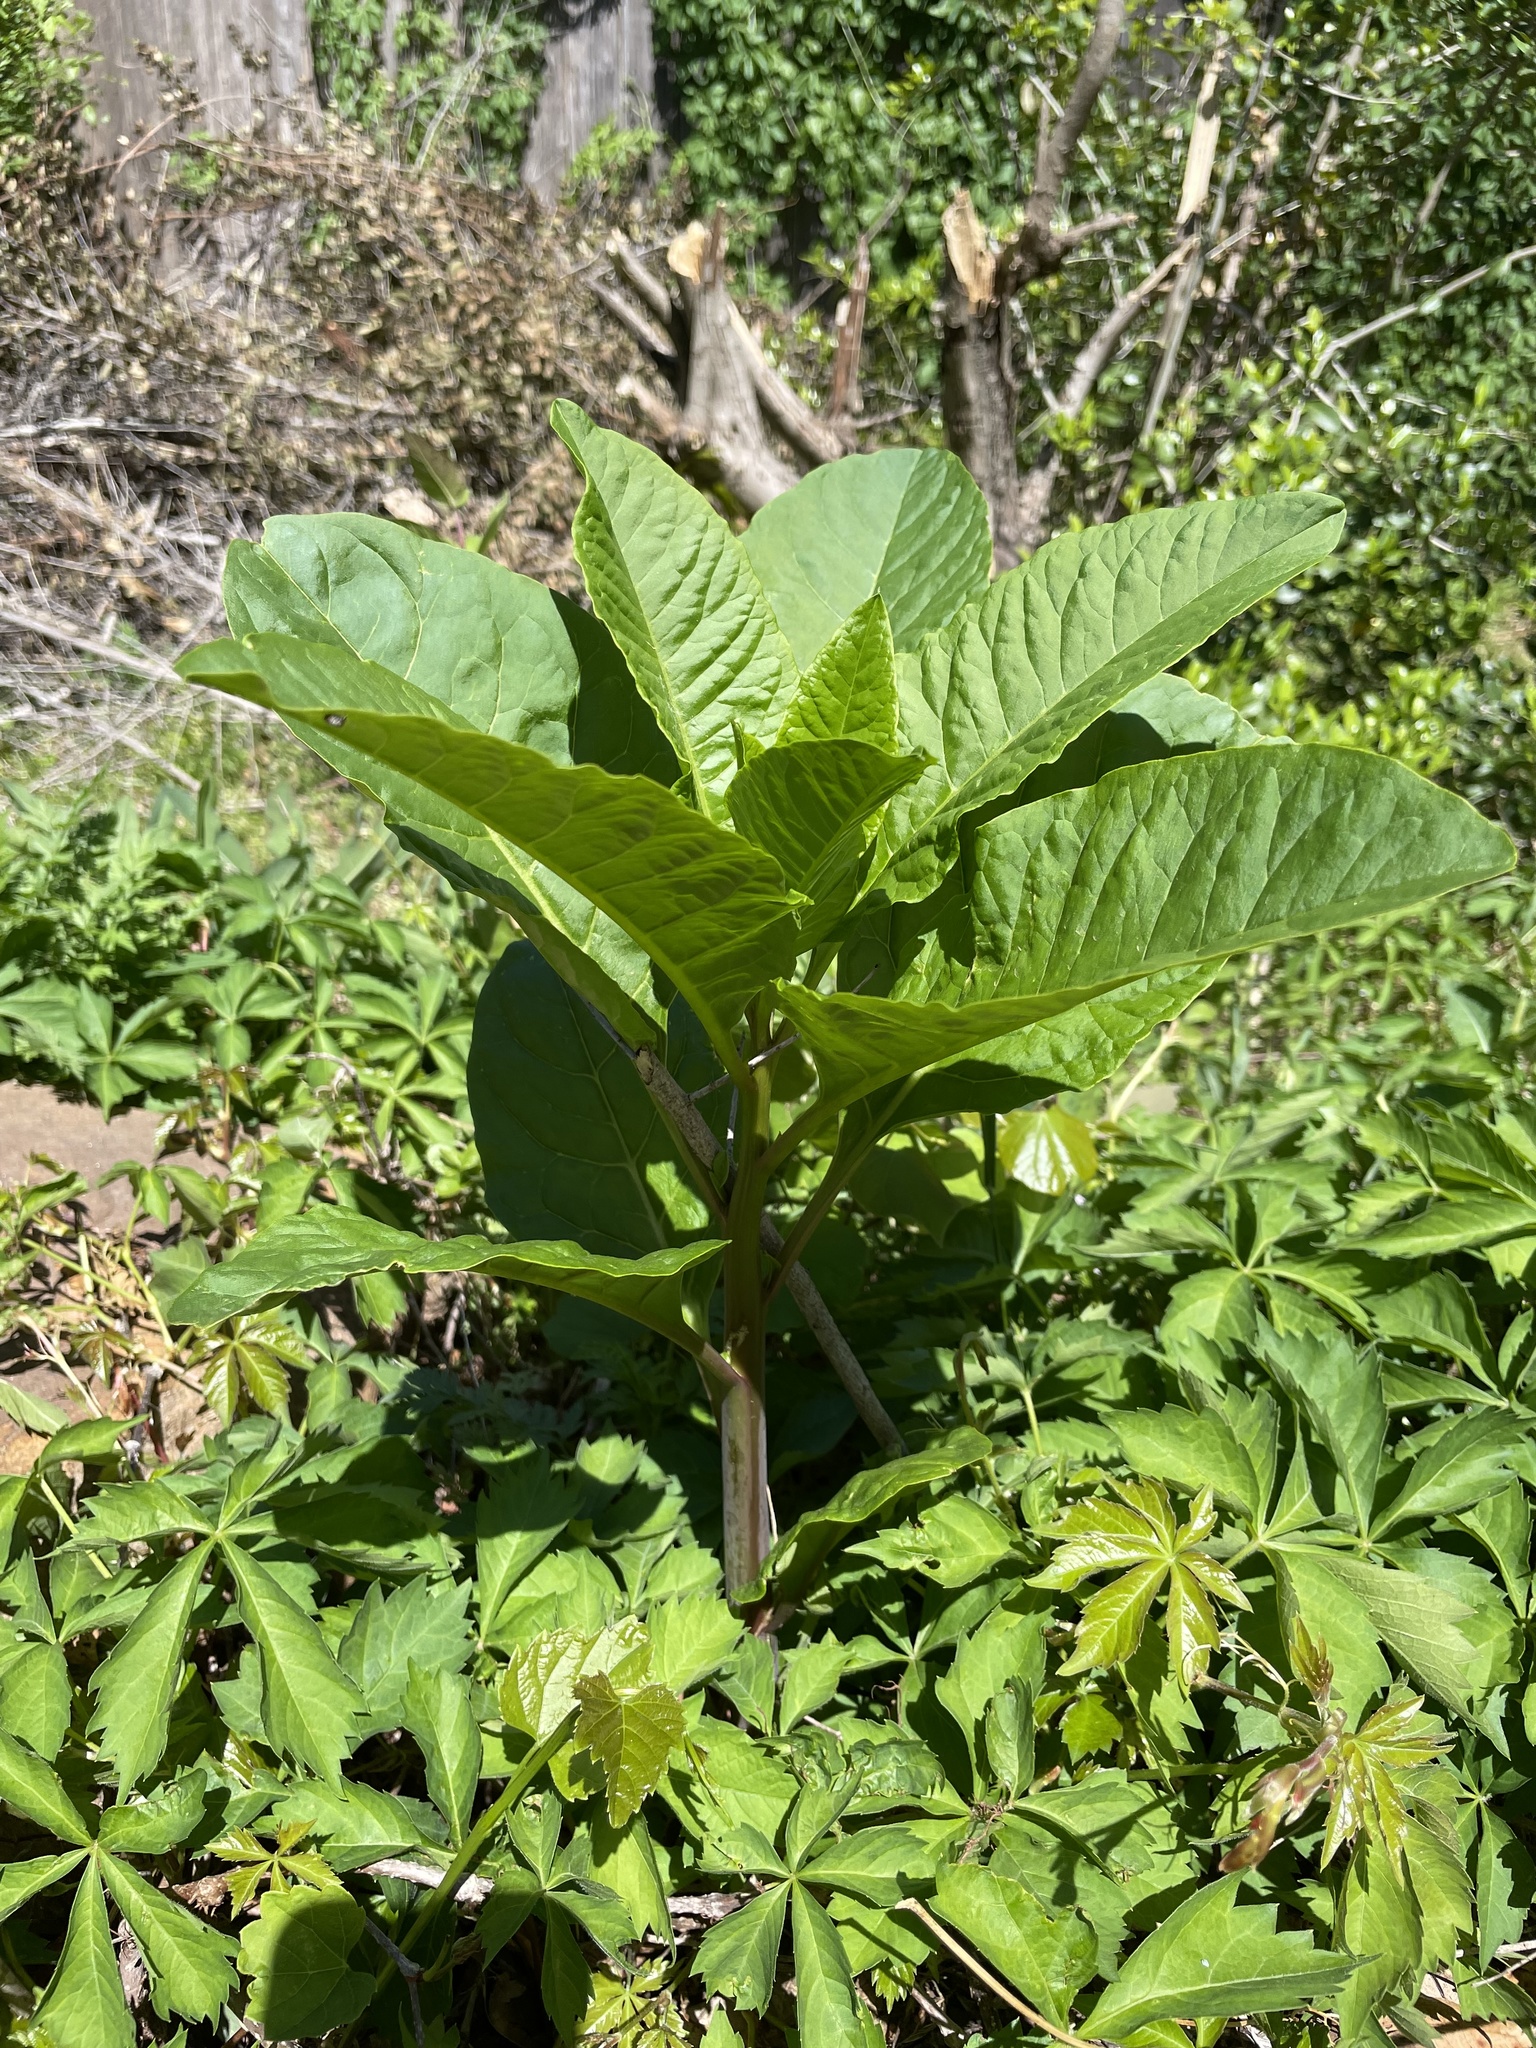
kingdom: Plantae
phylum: Tracheophyta
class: Magnoliopsida
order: Caryophyllales
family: Phytolaccaceae
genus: Phytolacca
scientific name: Phytolacca americana
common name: American pokeweed
